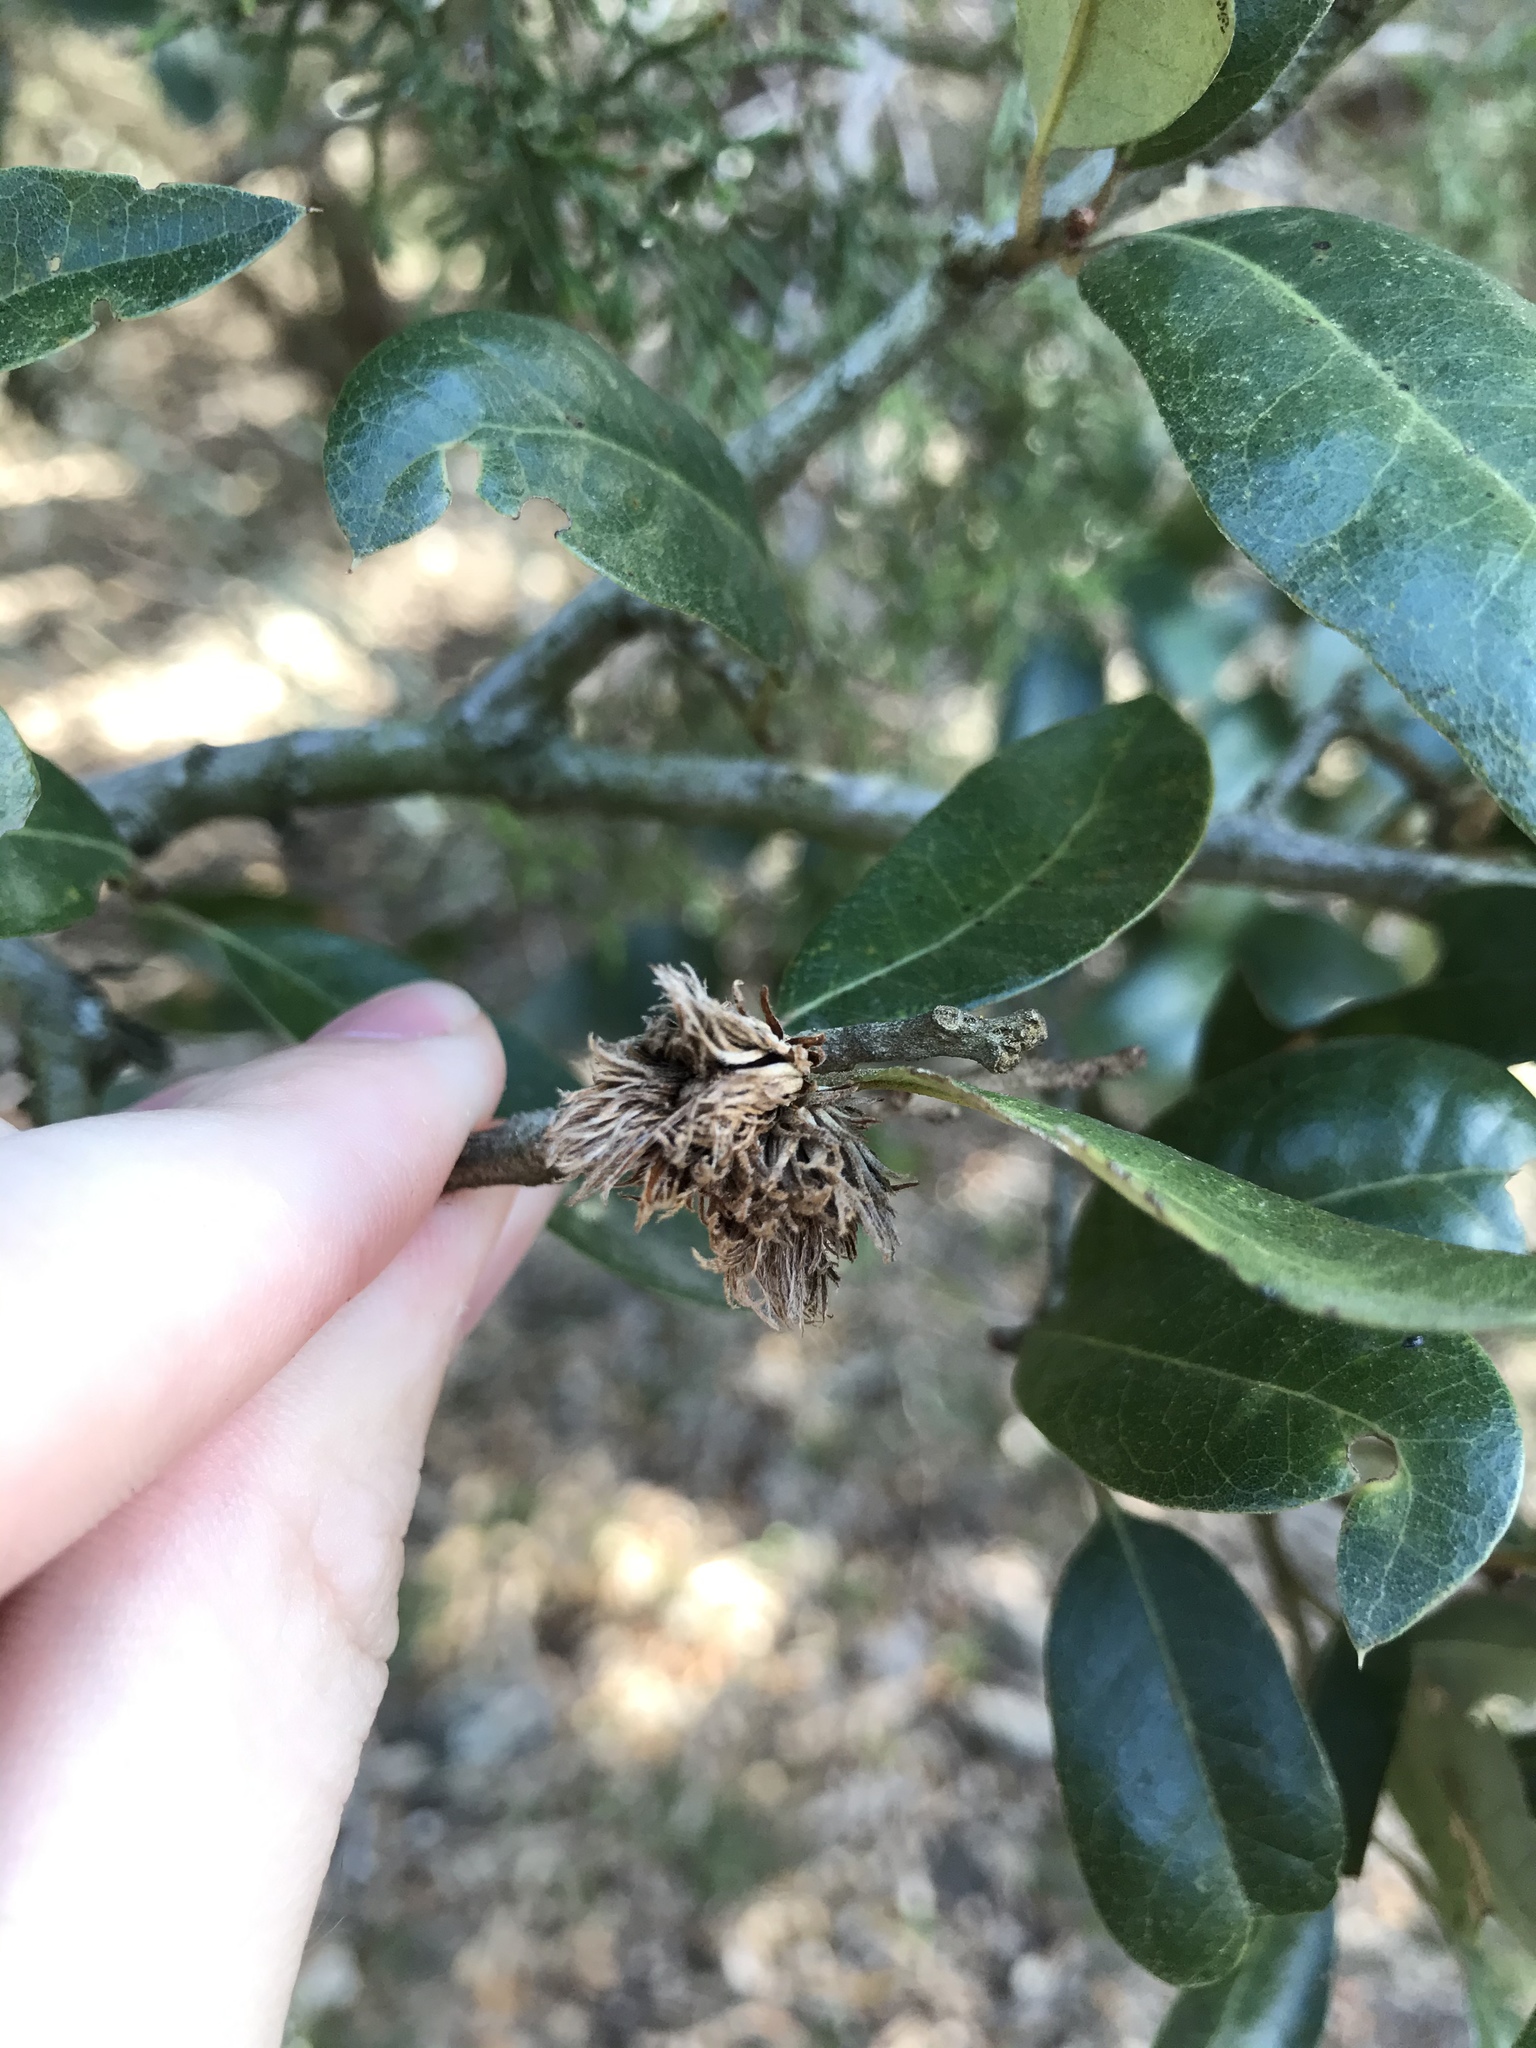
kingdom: Animalia
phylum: Arthropoda
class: Insecta
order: Hymenoptera
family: Cynipidae
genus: Andricus
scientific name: Andricus quercusfoliatus
